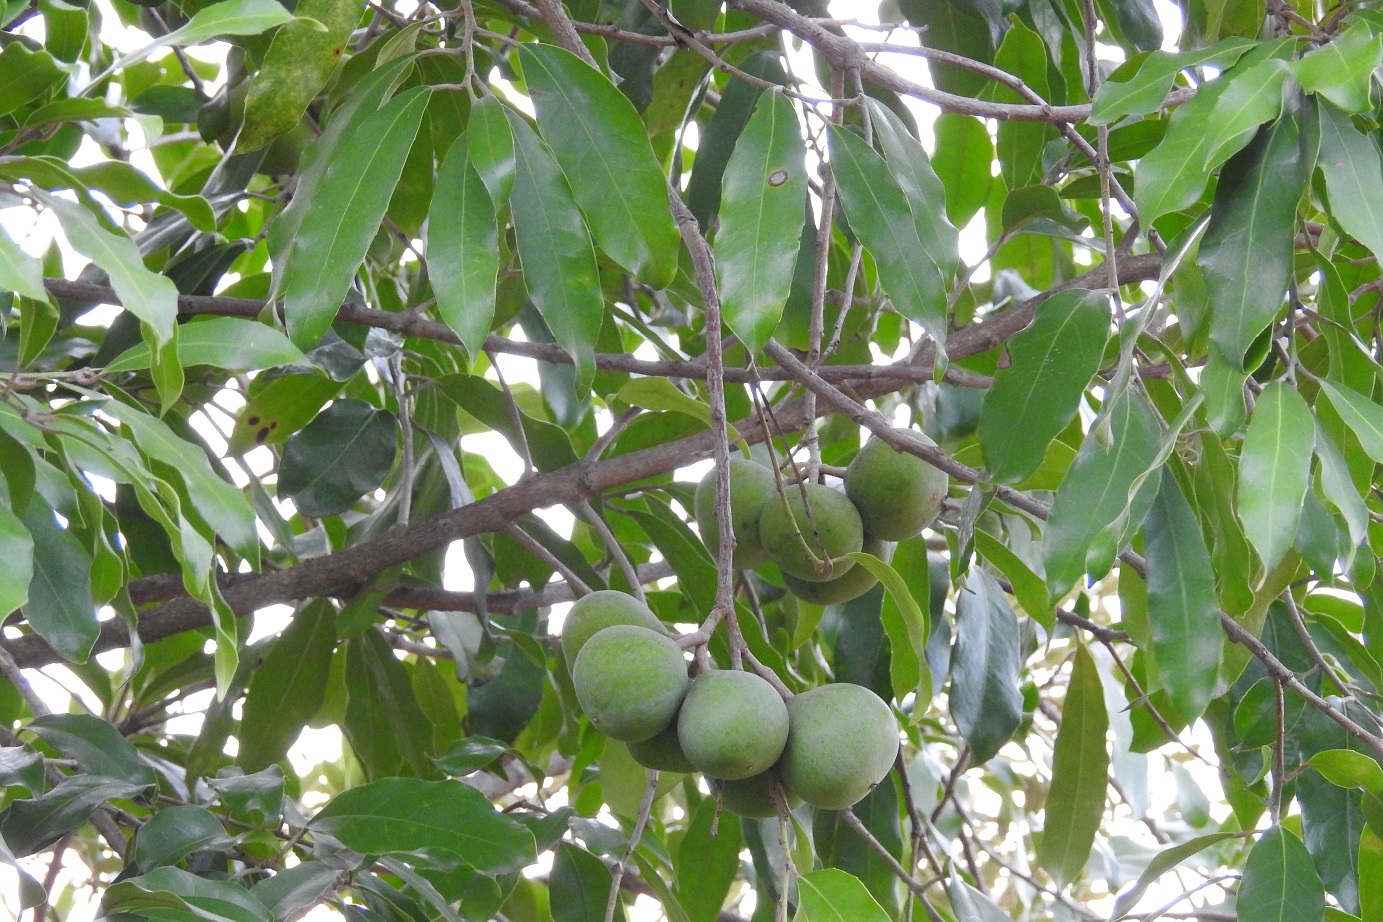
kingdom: Plantae
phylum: Tracheophyta
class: Magnoliopsida
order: Malpighiales
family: Salicaceae
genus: Olmediella
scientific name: Olmediella betschleriana
